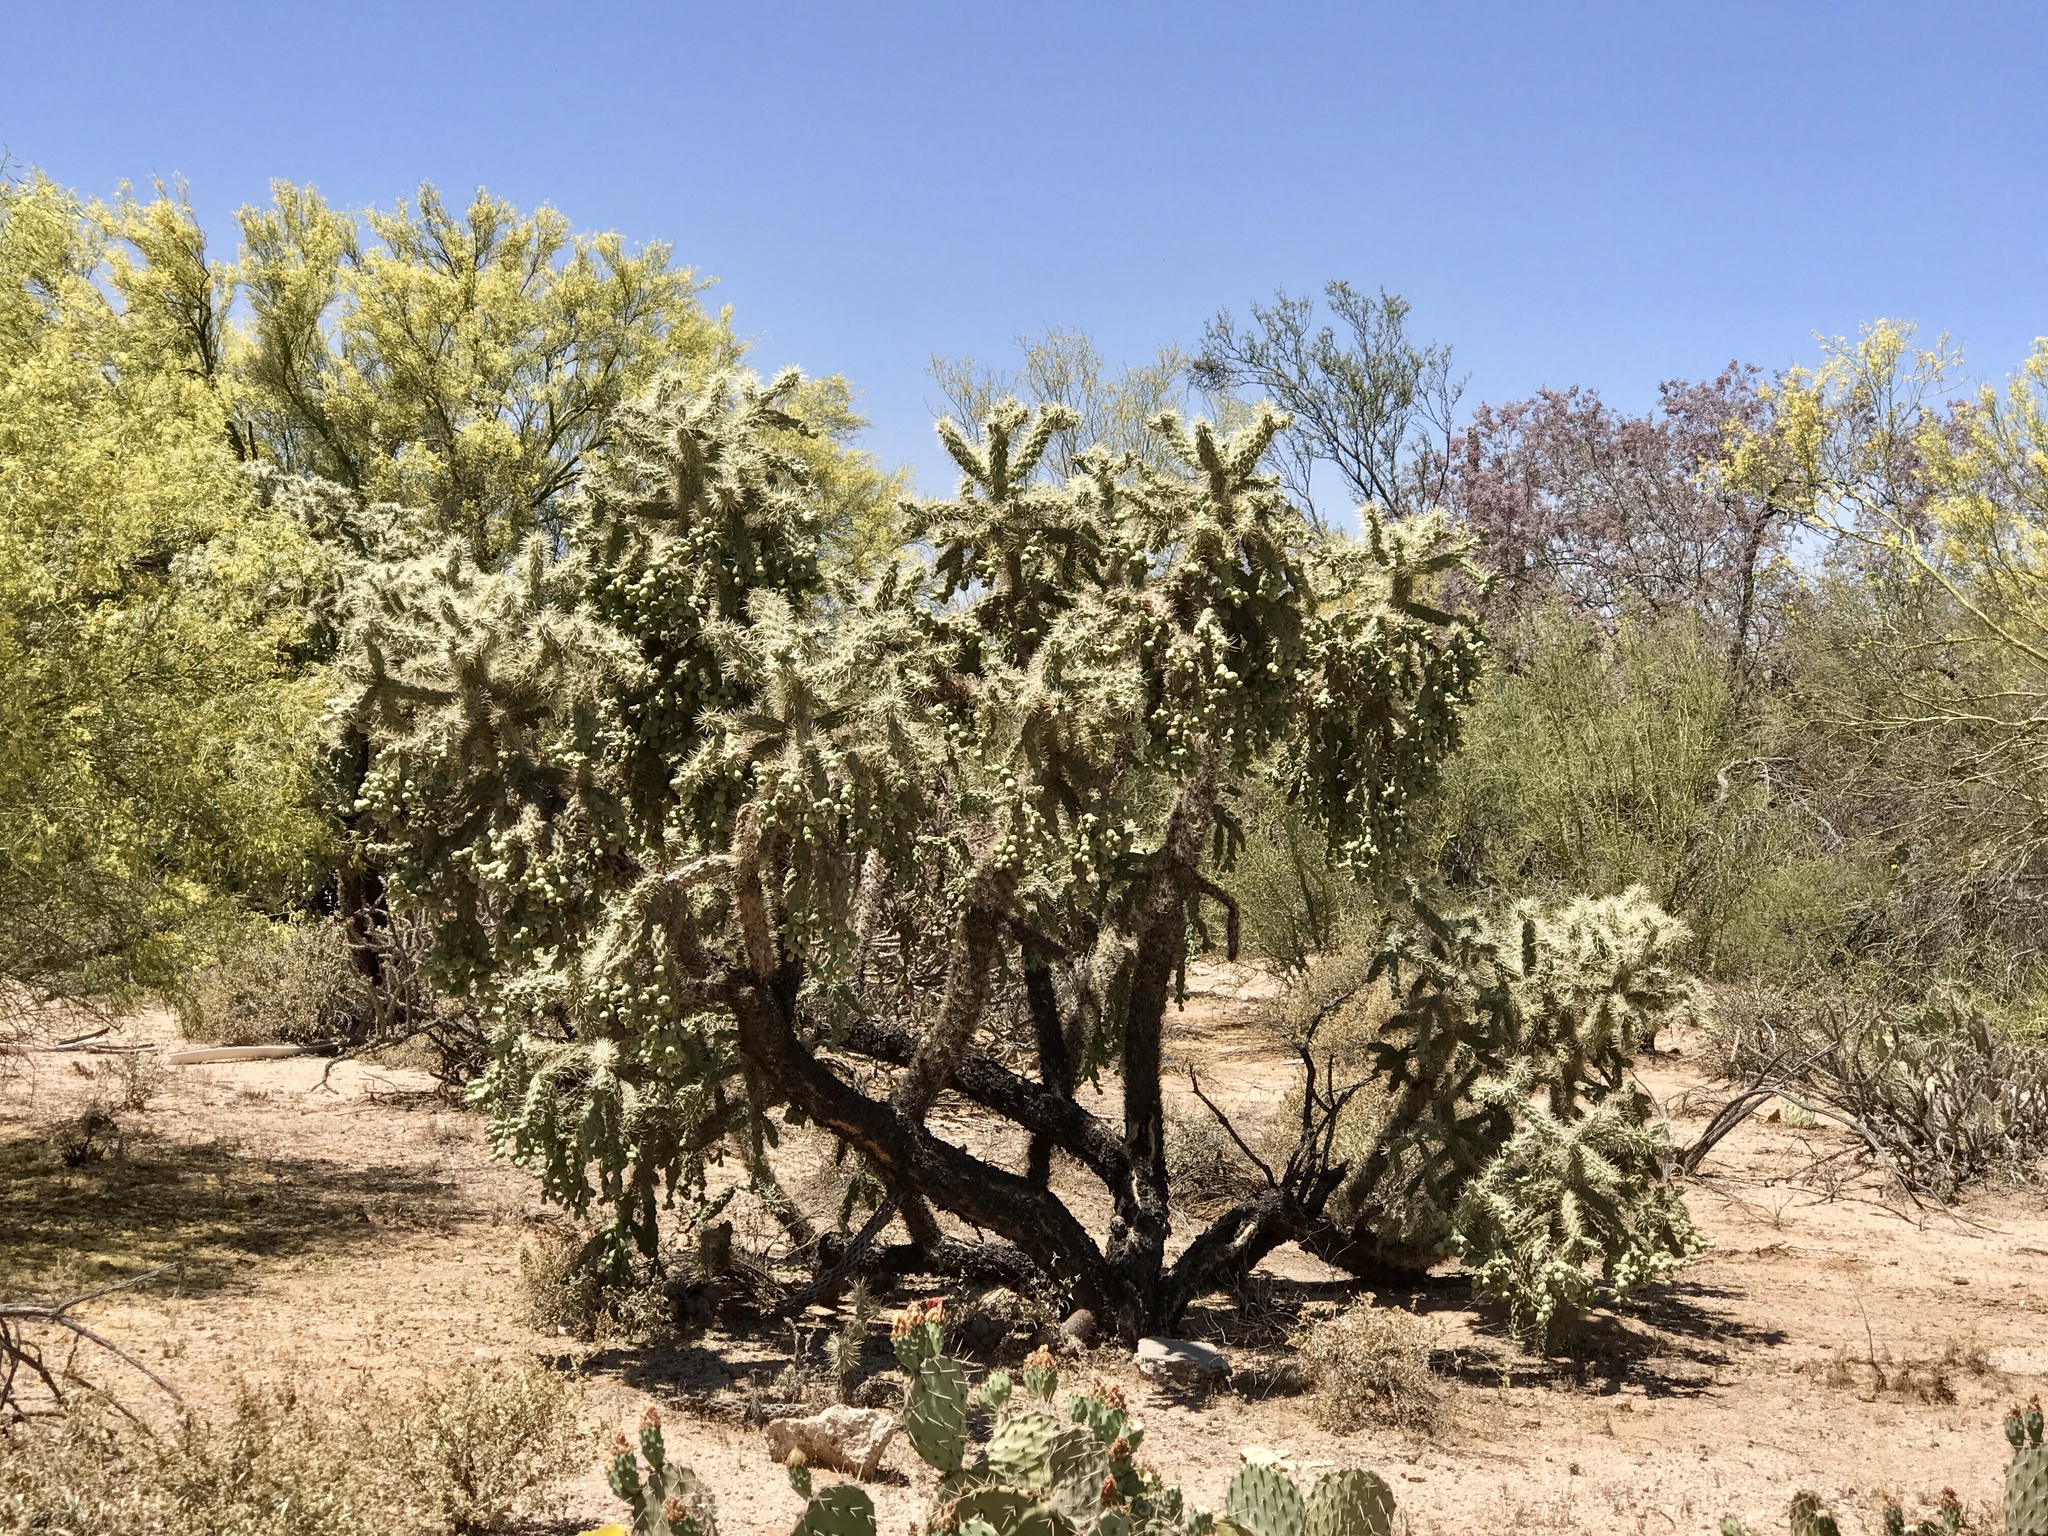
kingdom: Plantae
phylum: Tracheophyta
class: Magnoliopsida
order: Caryophyllales
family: Cactaceae
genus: Cylindropuntia
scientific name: Cylindropuntia fulgida
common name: Jumping cholla
